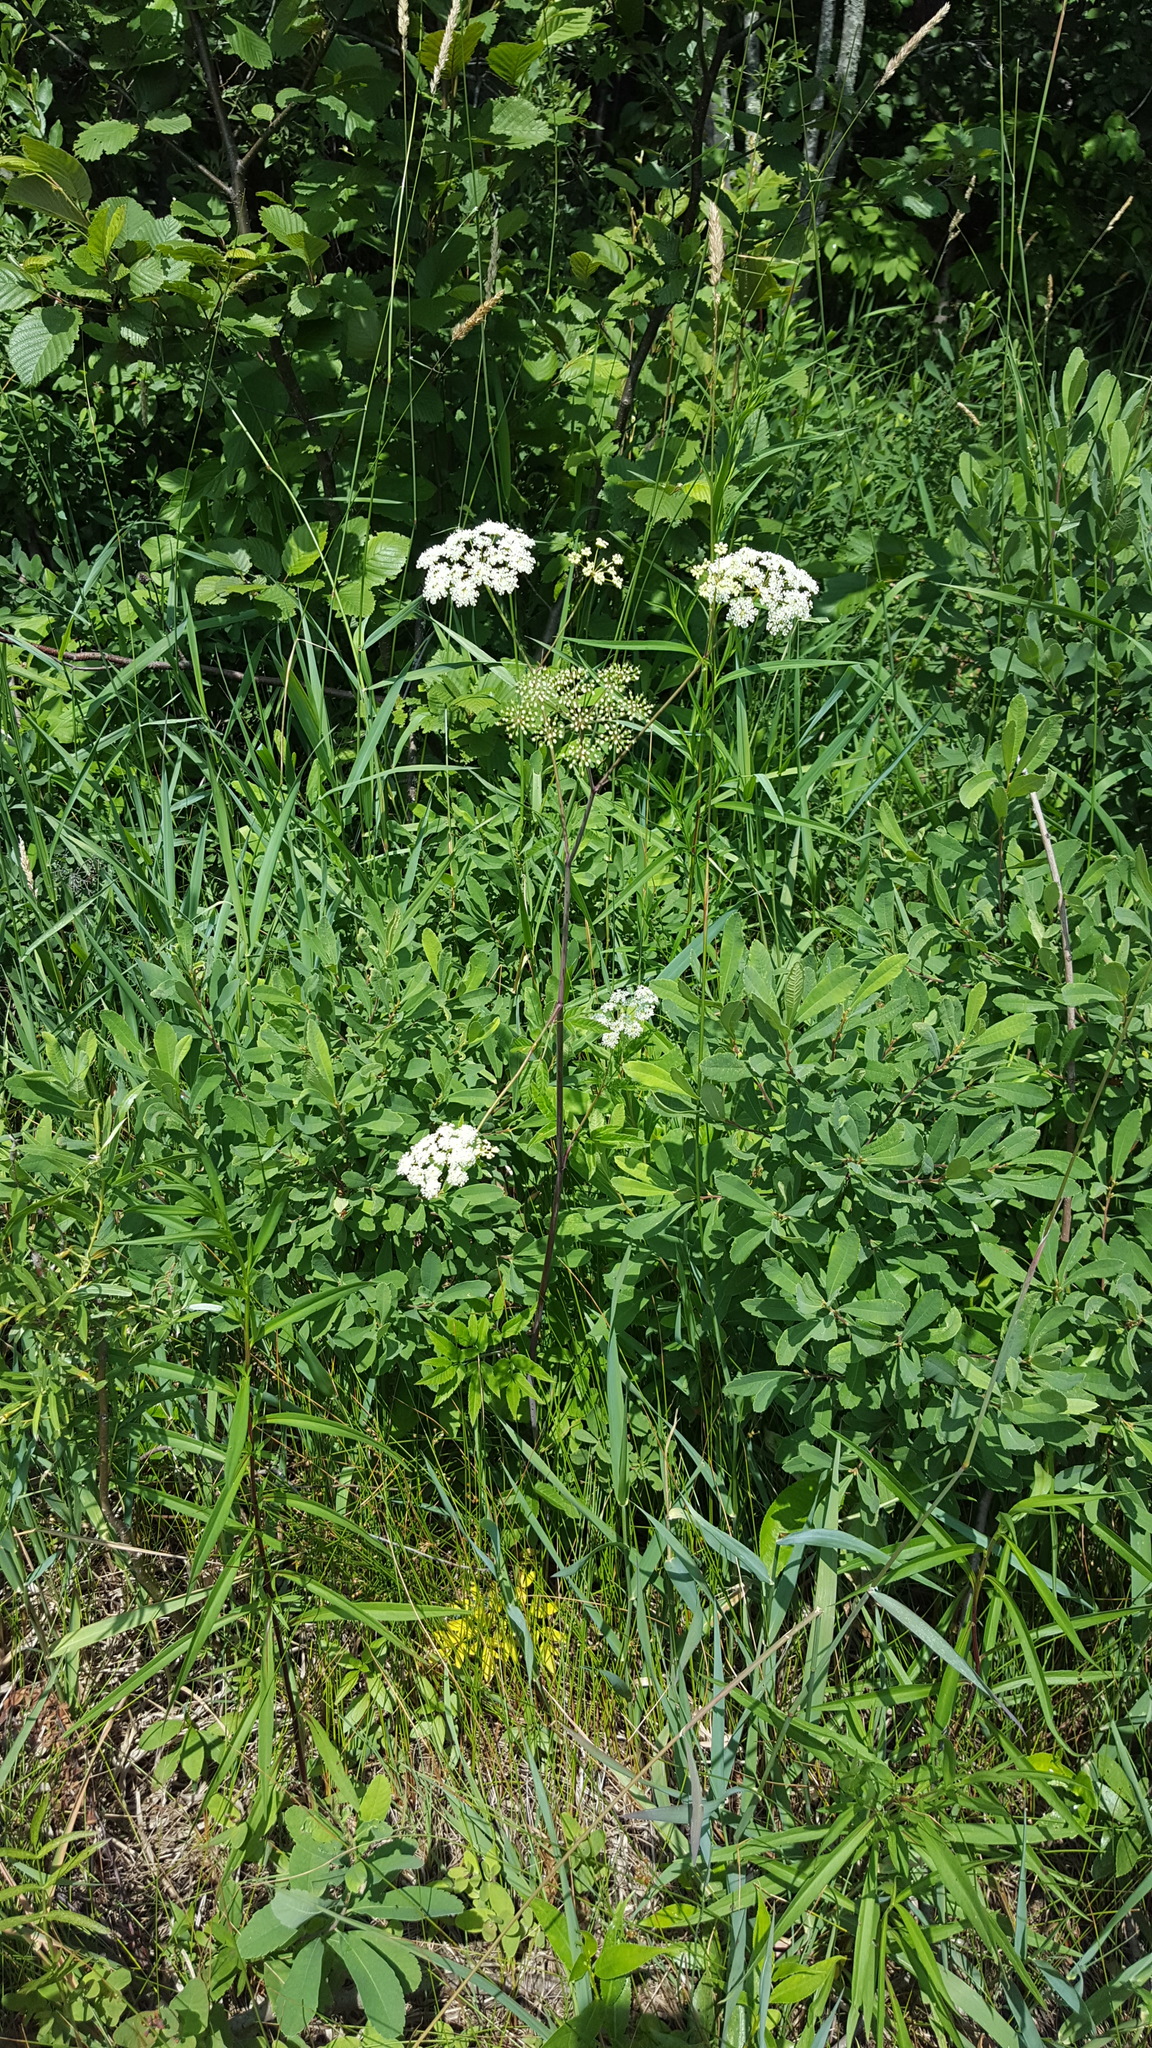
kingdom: Plantae
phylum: Tracheophyta
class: Magnoliopsida
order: Apiales
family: Apiaceae
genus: Cicuta
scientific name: Cicuta maculata
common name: Spotted cowbane
